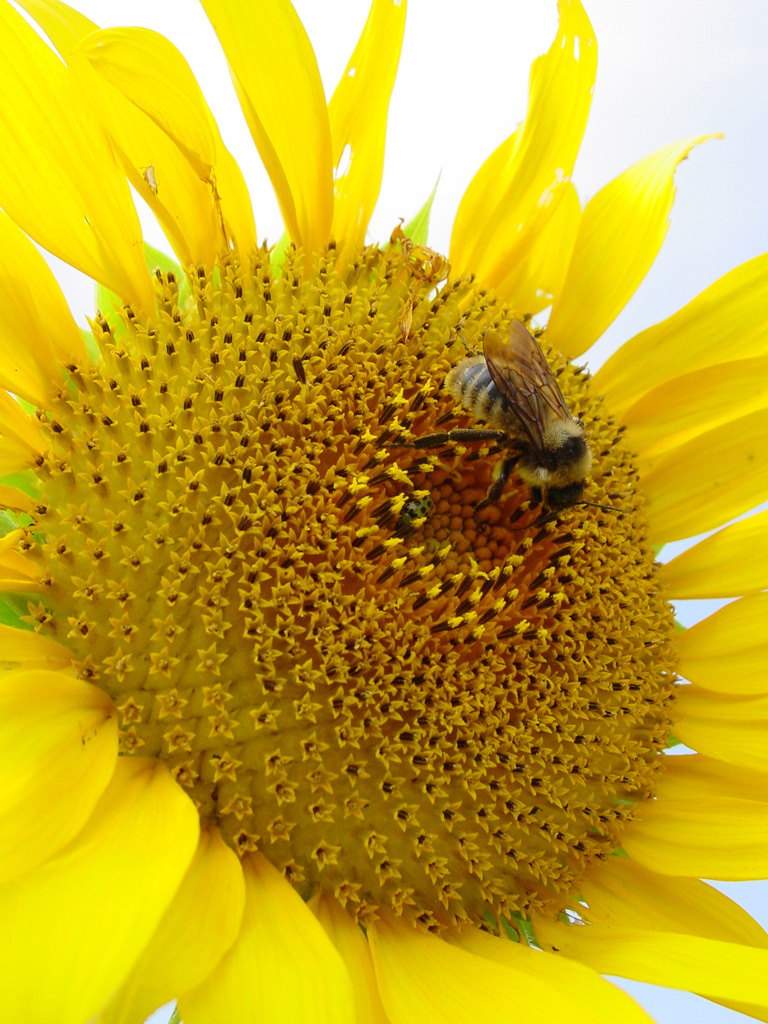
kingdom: Animalia
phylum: Arthropoda
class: Insecta
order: Hymenoptera
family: Apidae
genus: Bombus
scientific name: Bombus pensylvanicus
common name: Bumble bee
